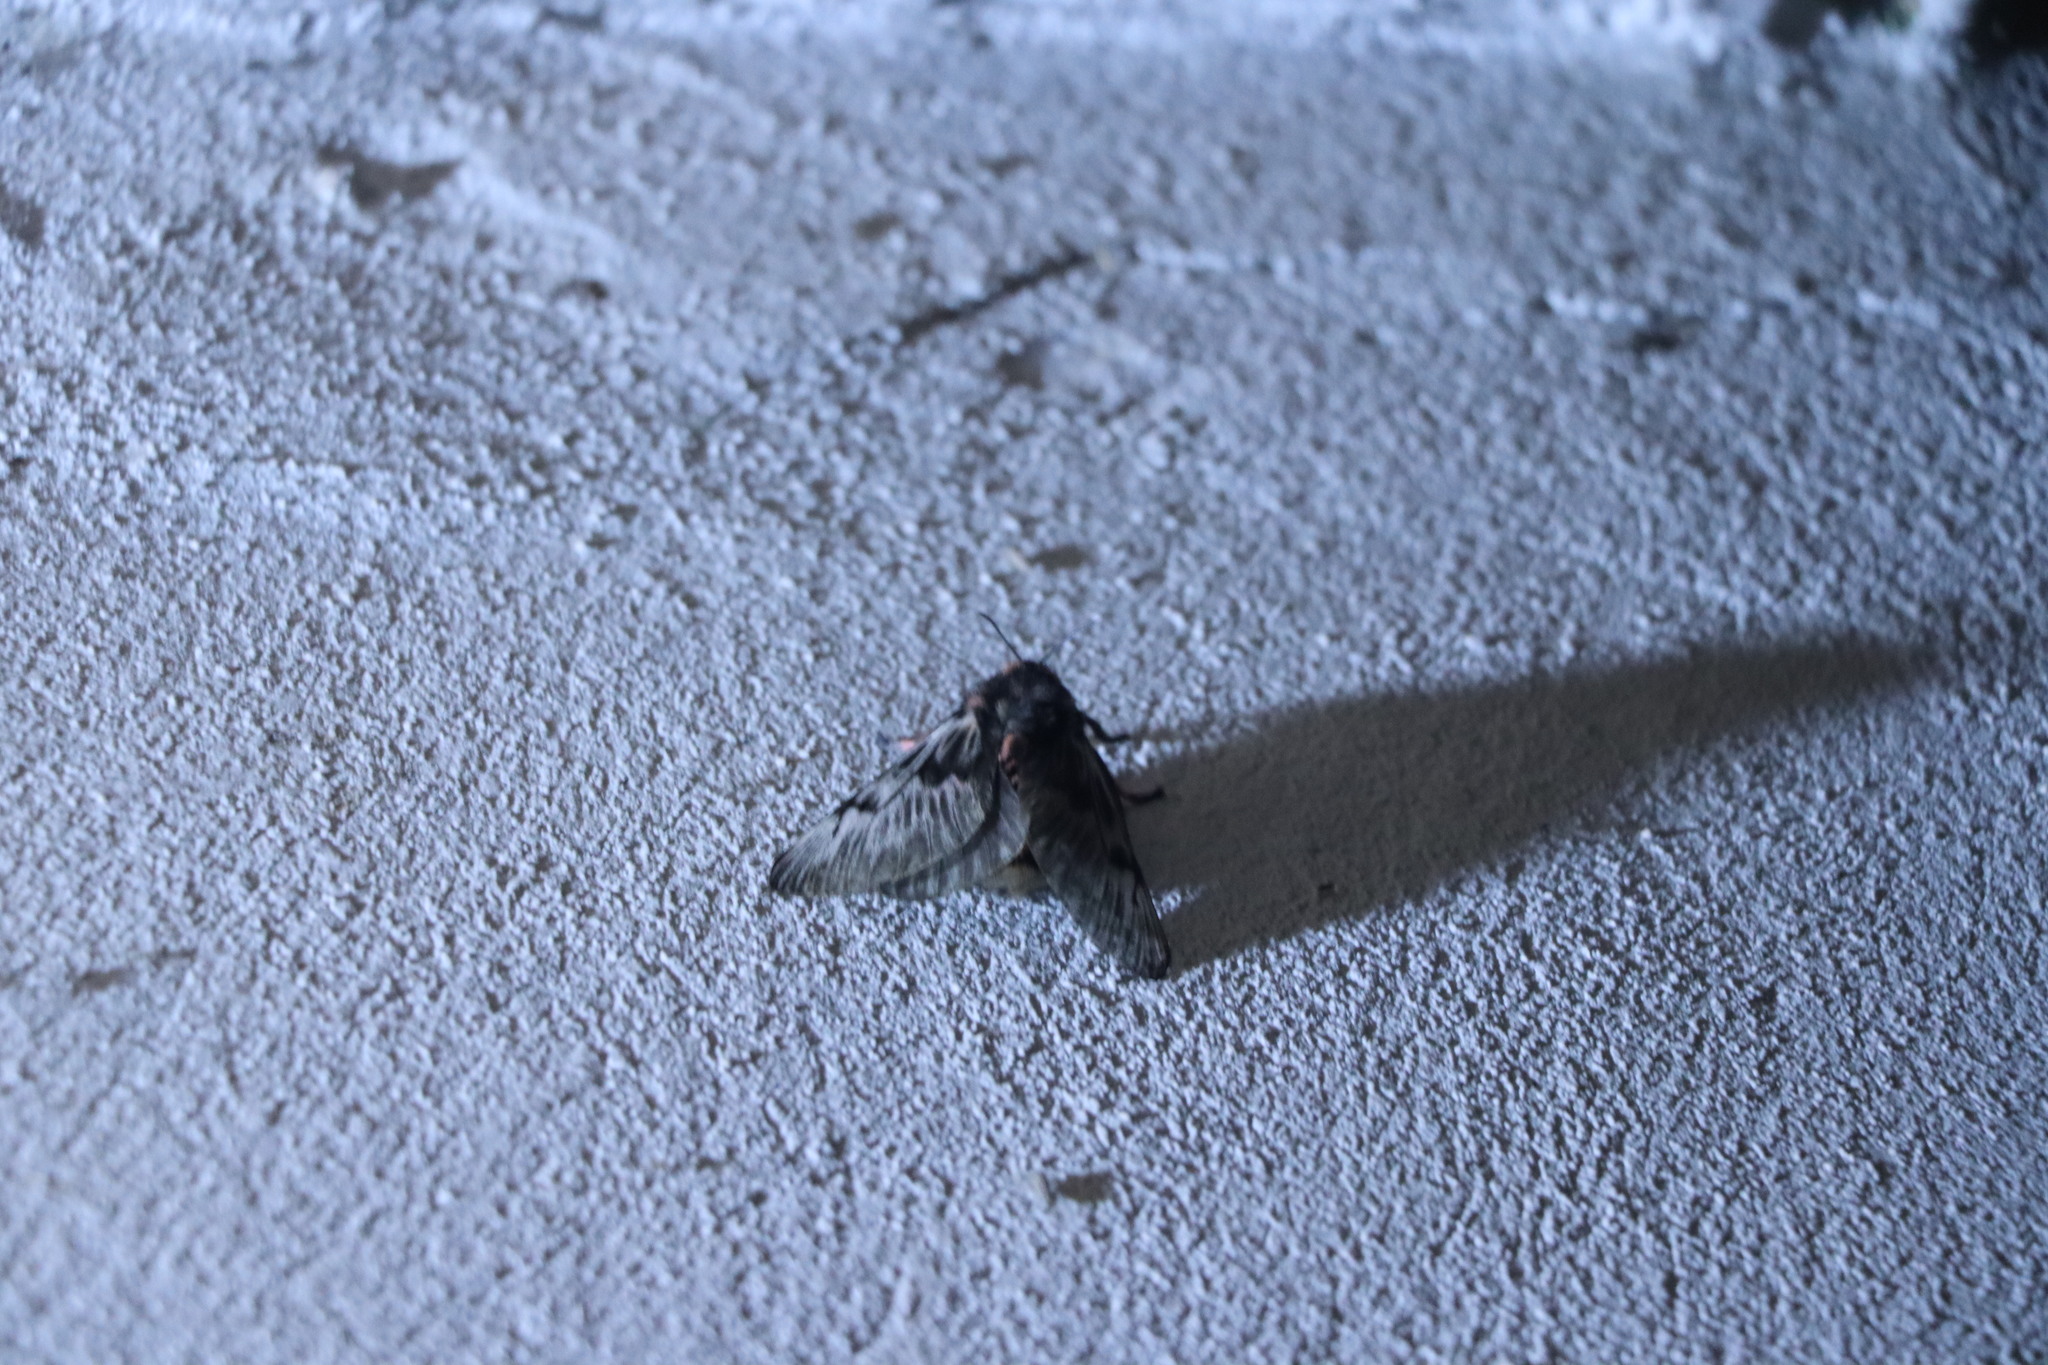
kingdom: Animalia
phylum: Arthropoda
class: Insecta
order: Lepidoptera
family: Megalopygidae
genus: Megalopyge
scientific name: Megalopyge urens
